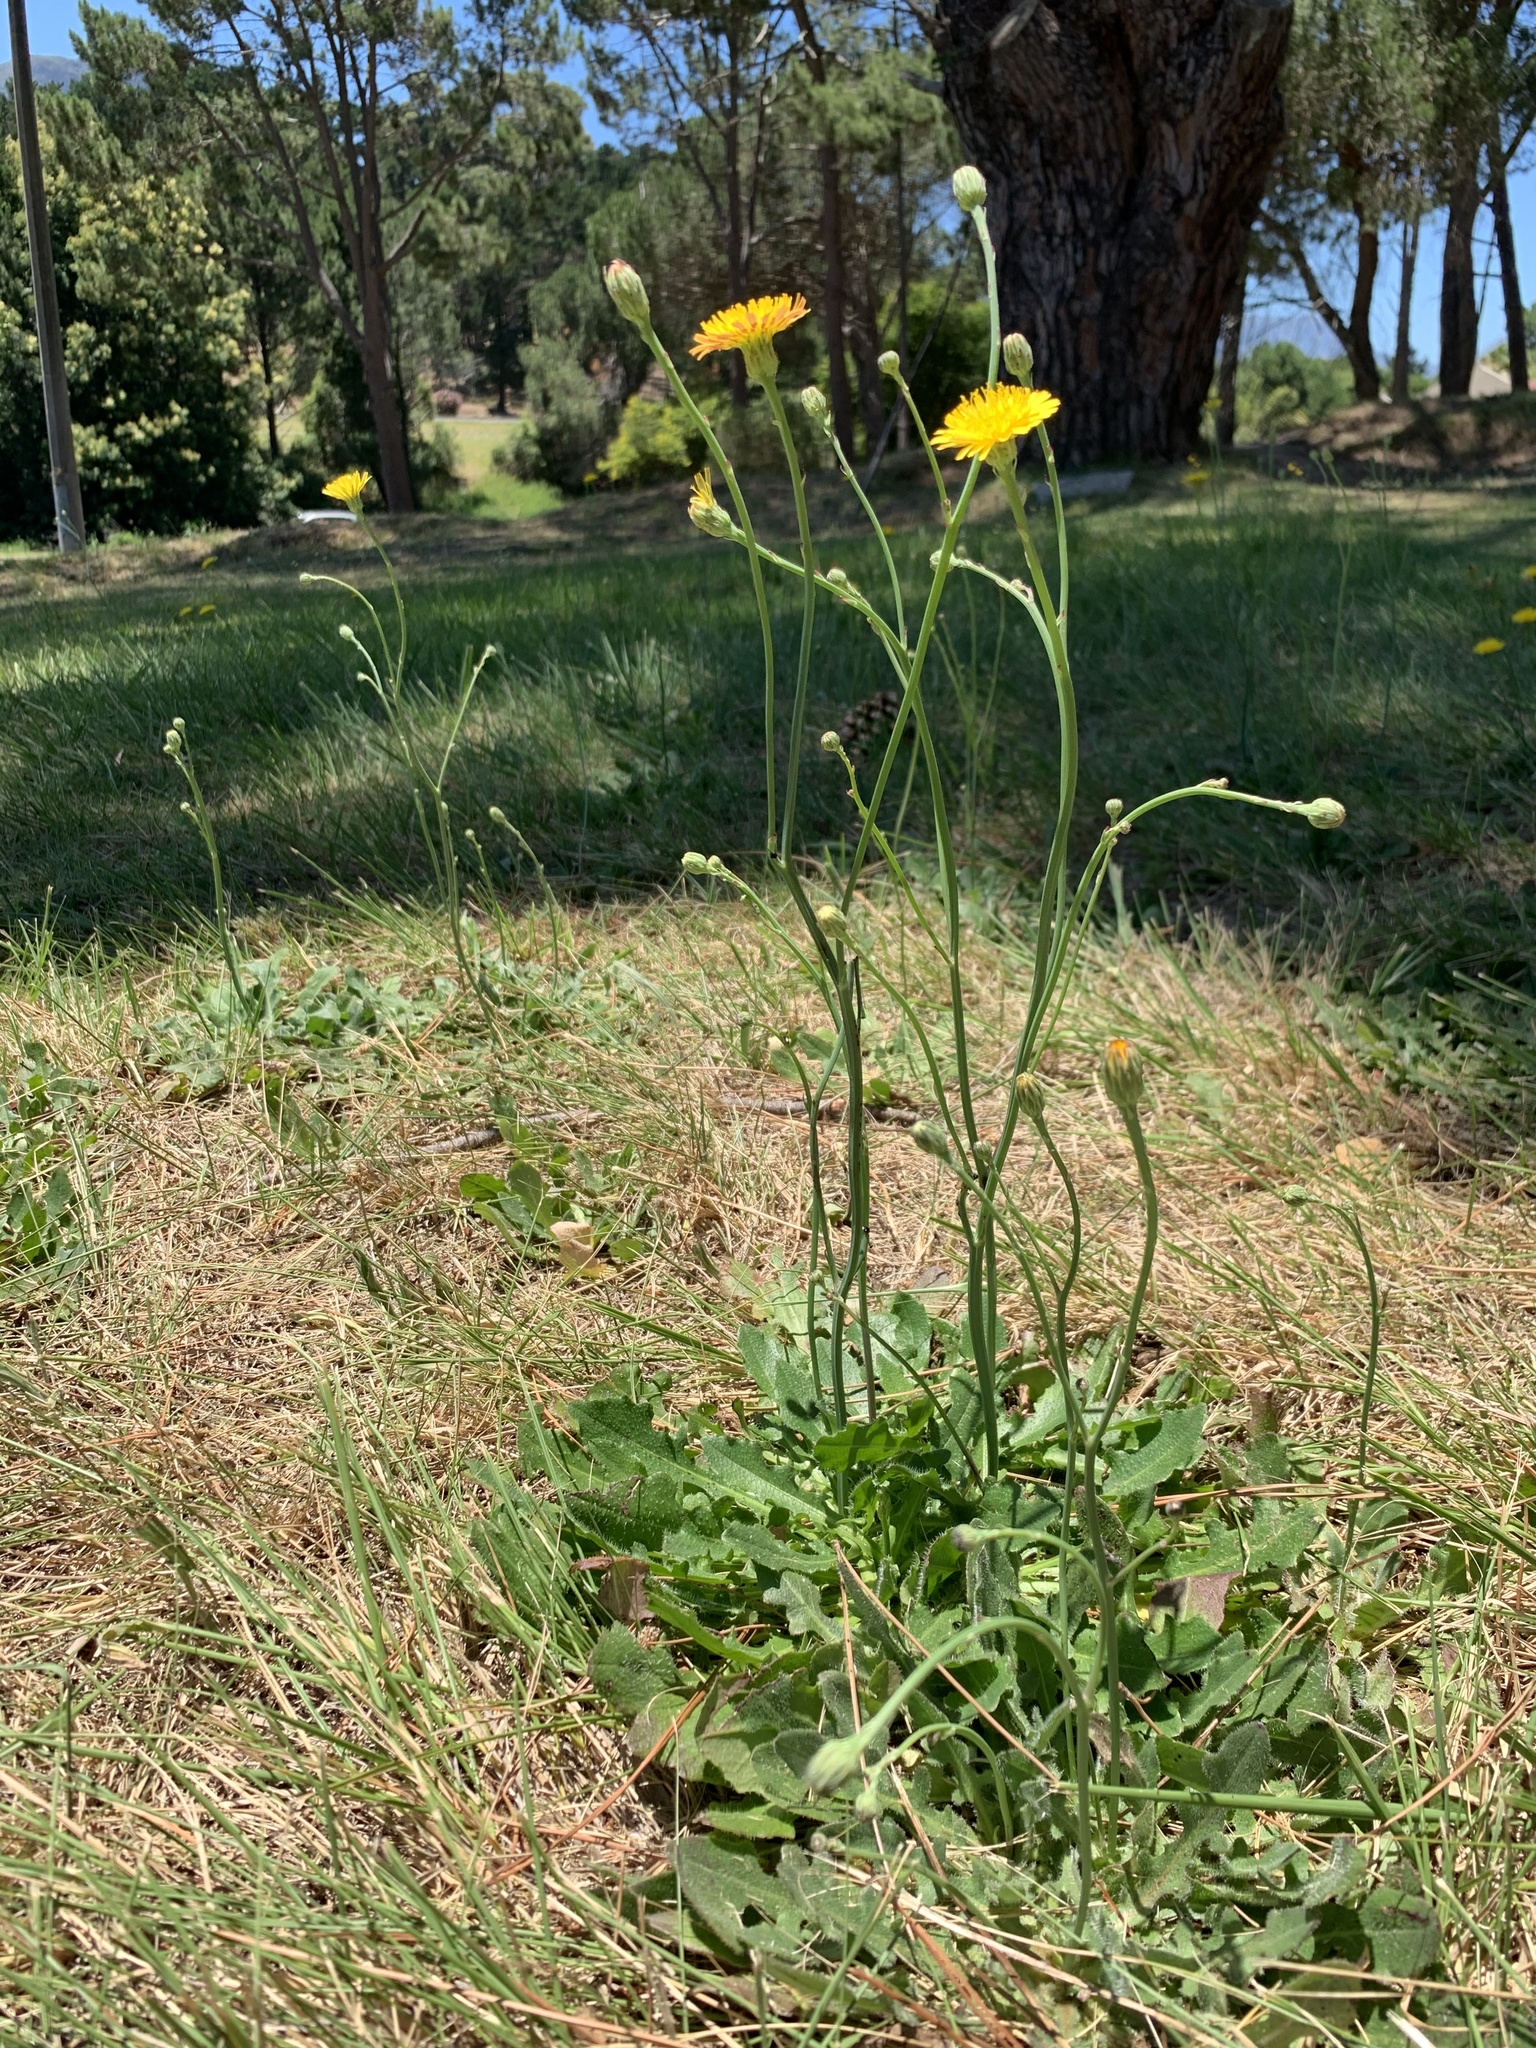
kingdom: Plantae
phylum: Tracheophyta
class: Magnoliopsida
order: Asterales
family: Asteraceae
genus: Hypochaeris
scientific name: Hypochaeris radicata
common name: Flatweed
